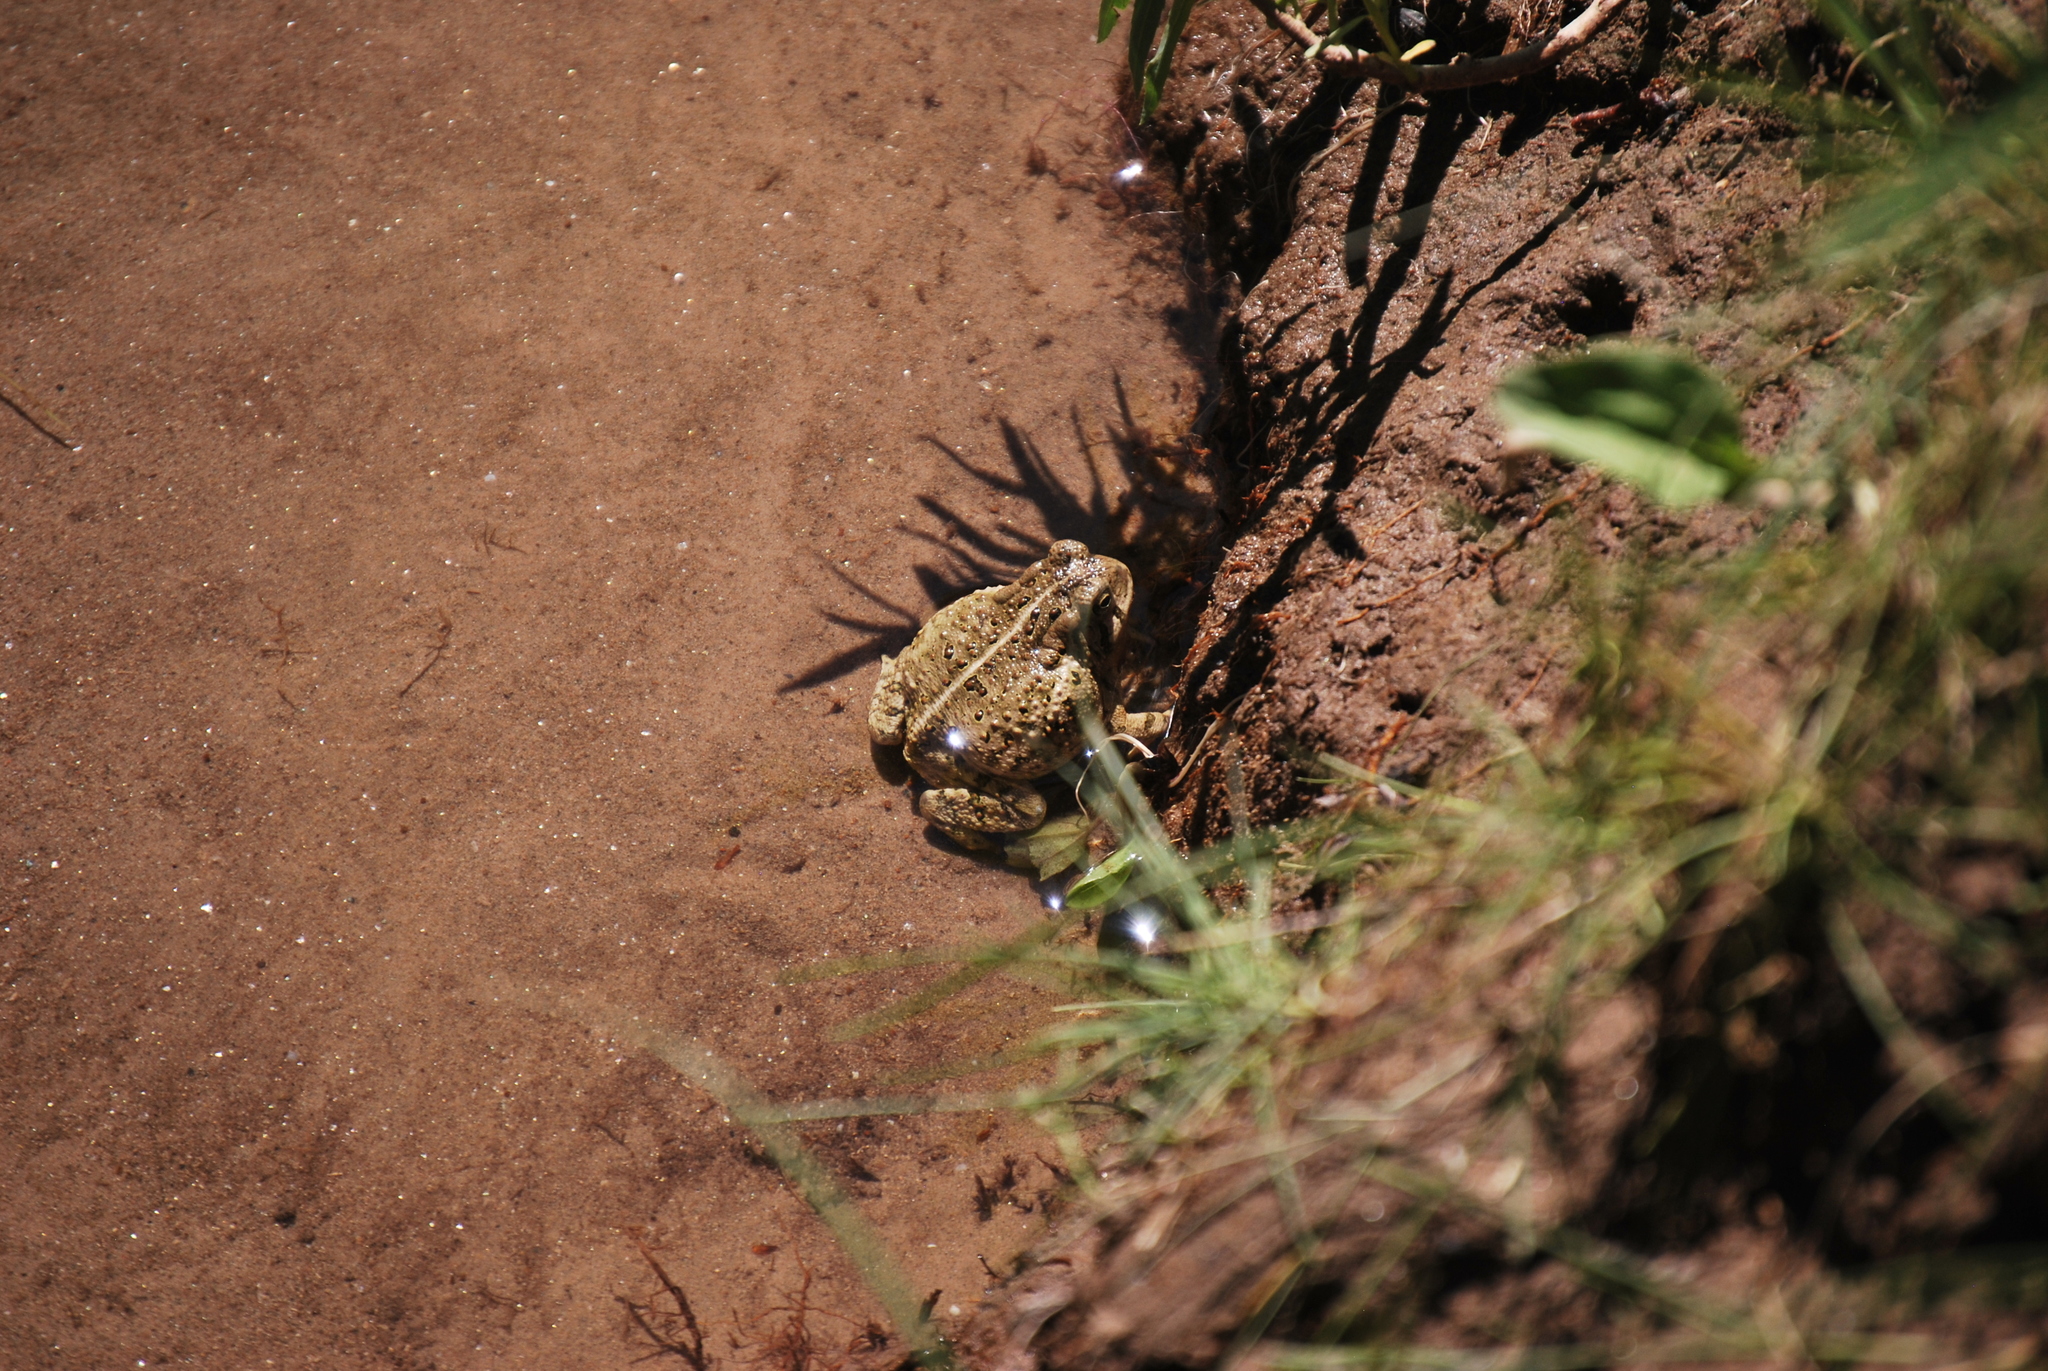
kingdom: Animalia
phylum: Chordata
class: Amphibia
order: Anura
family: Bufonidae
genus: Anaxyrus
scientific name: Anaxyrus woodhousii
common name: Woodhouse's toad
